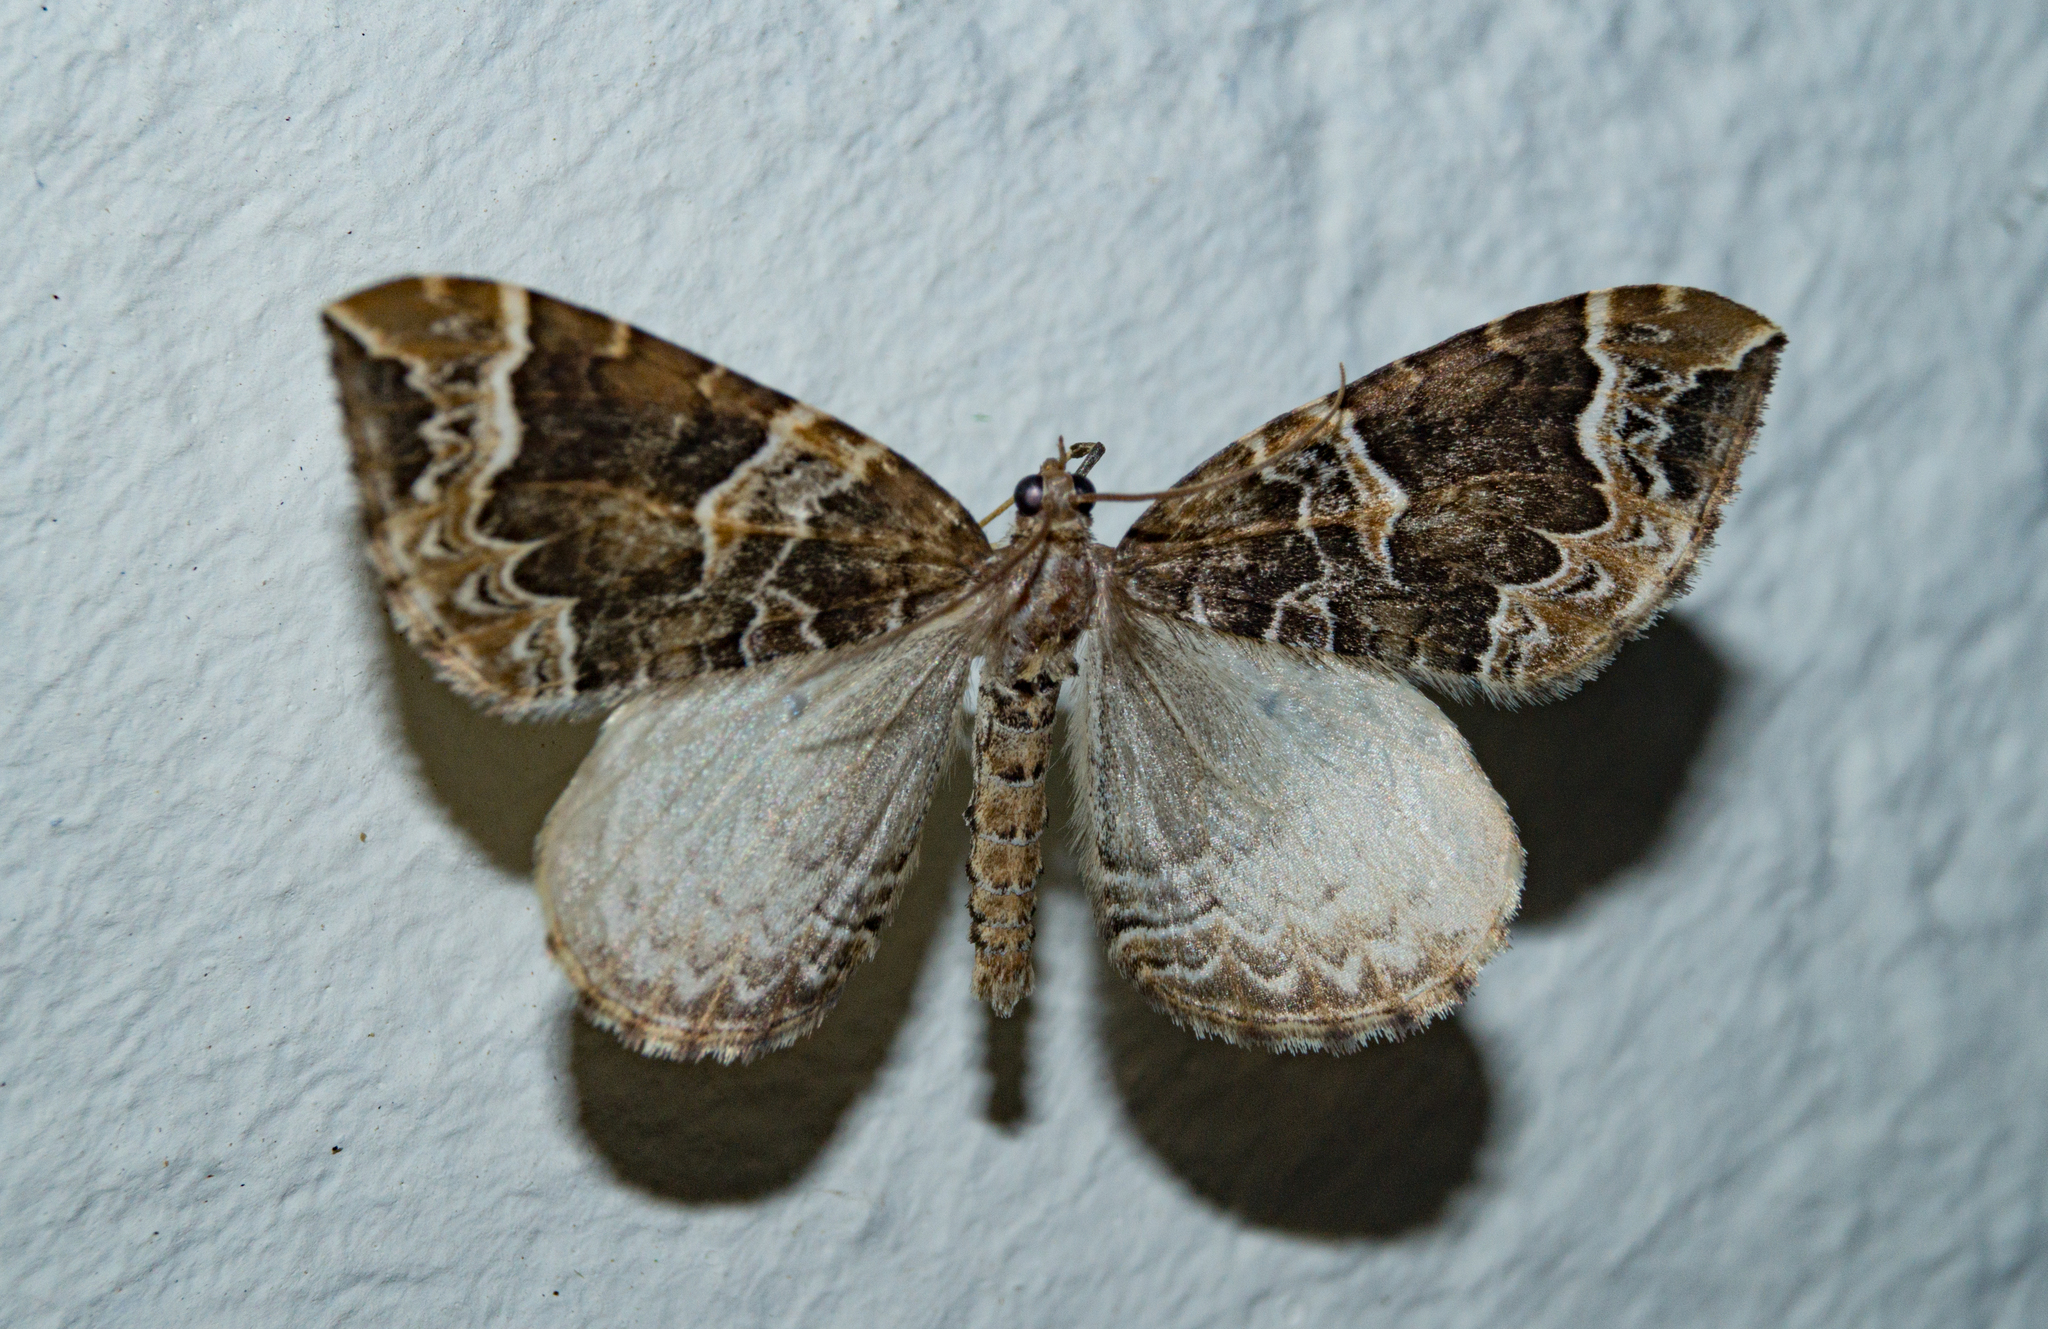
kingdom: Animalia
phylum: Arthropoda
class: Insecta
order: Lepidoptera
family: Geometridae
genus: Eulithis
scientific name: Eulithis prunata
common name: Phoenix
